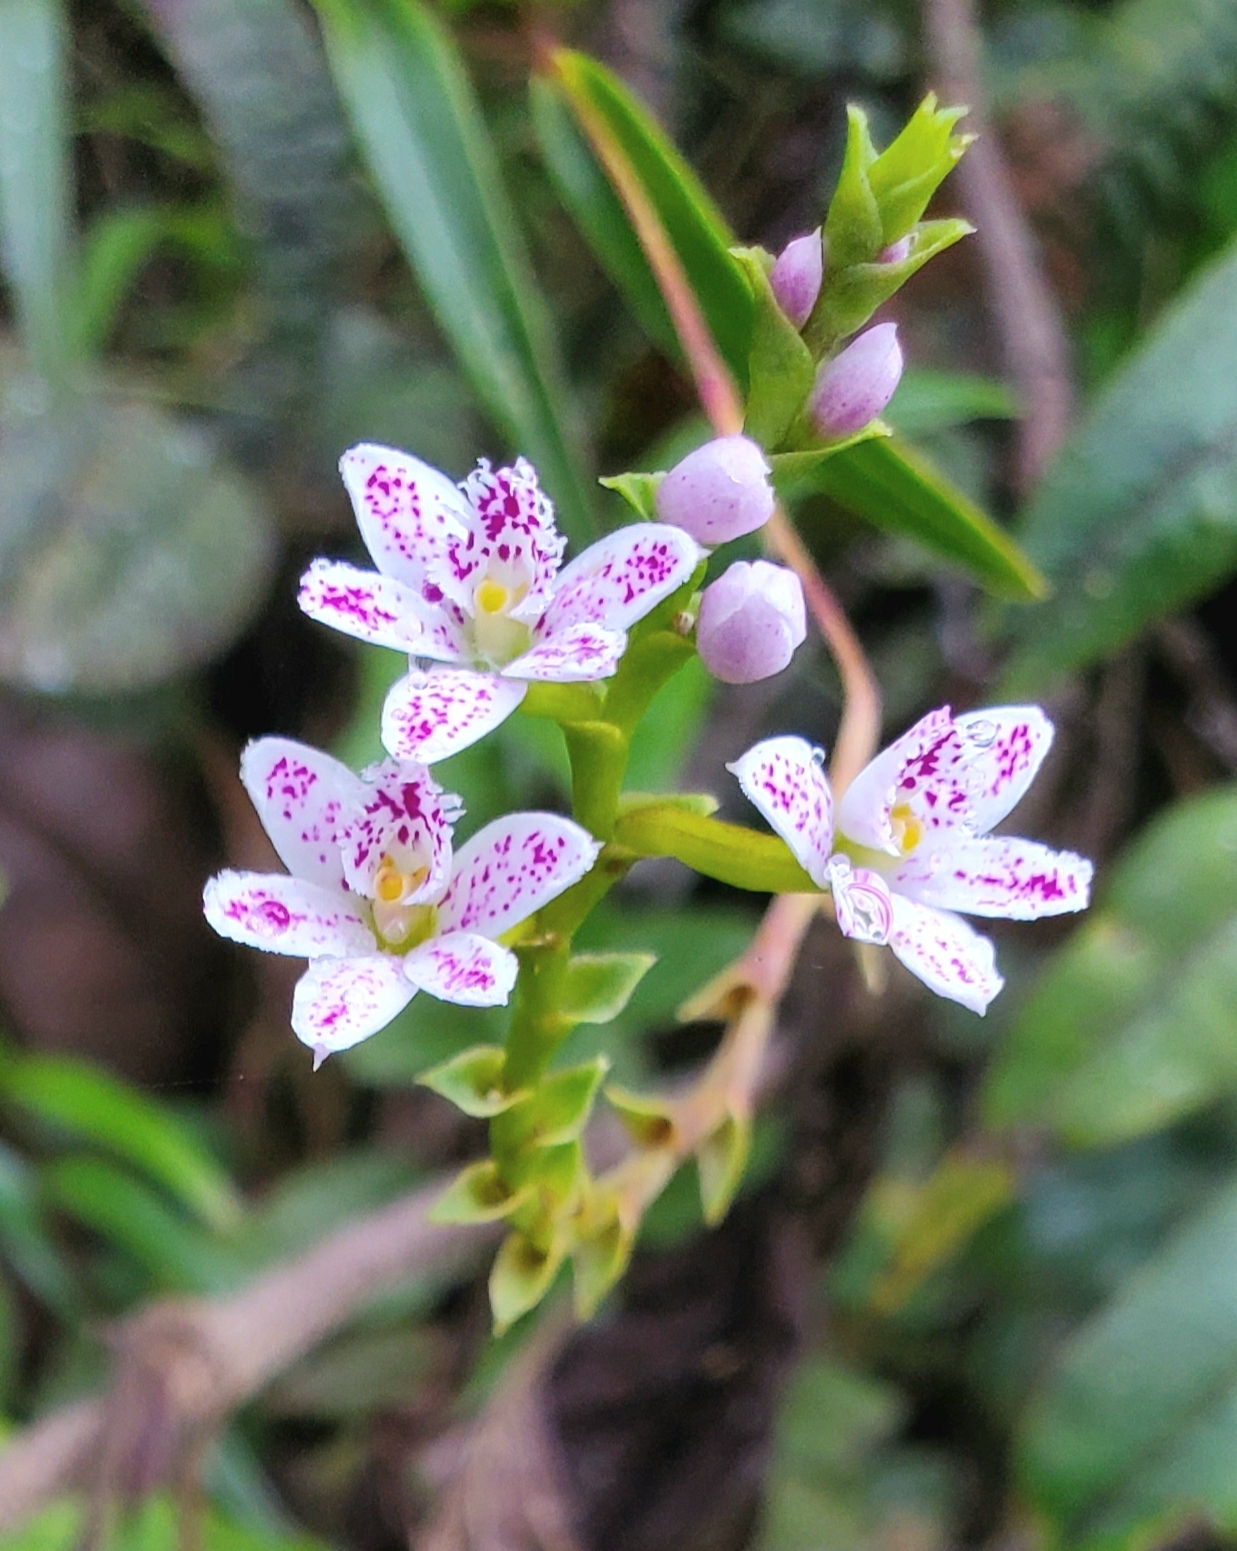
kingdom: Plantae
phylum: Tracheophyta
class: Liliopsida
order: Asparagales
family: Orchidaceae
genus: Epidendrum
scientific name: Epidendrum fimbriatum
